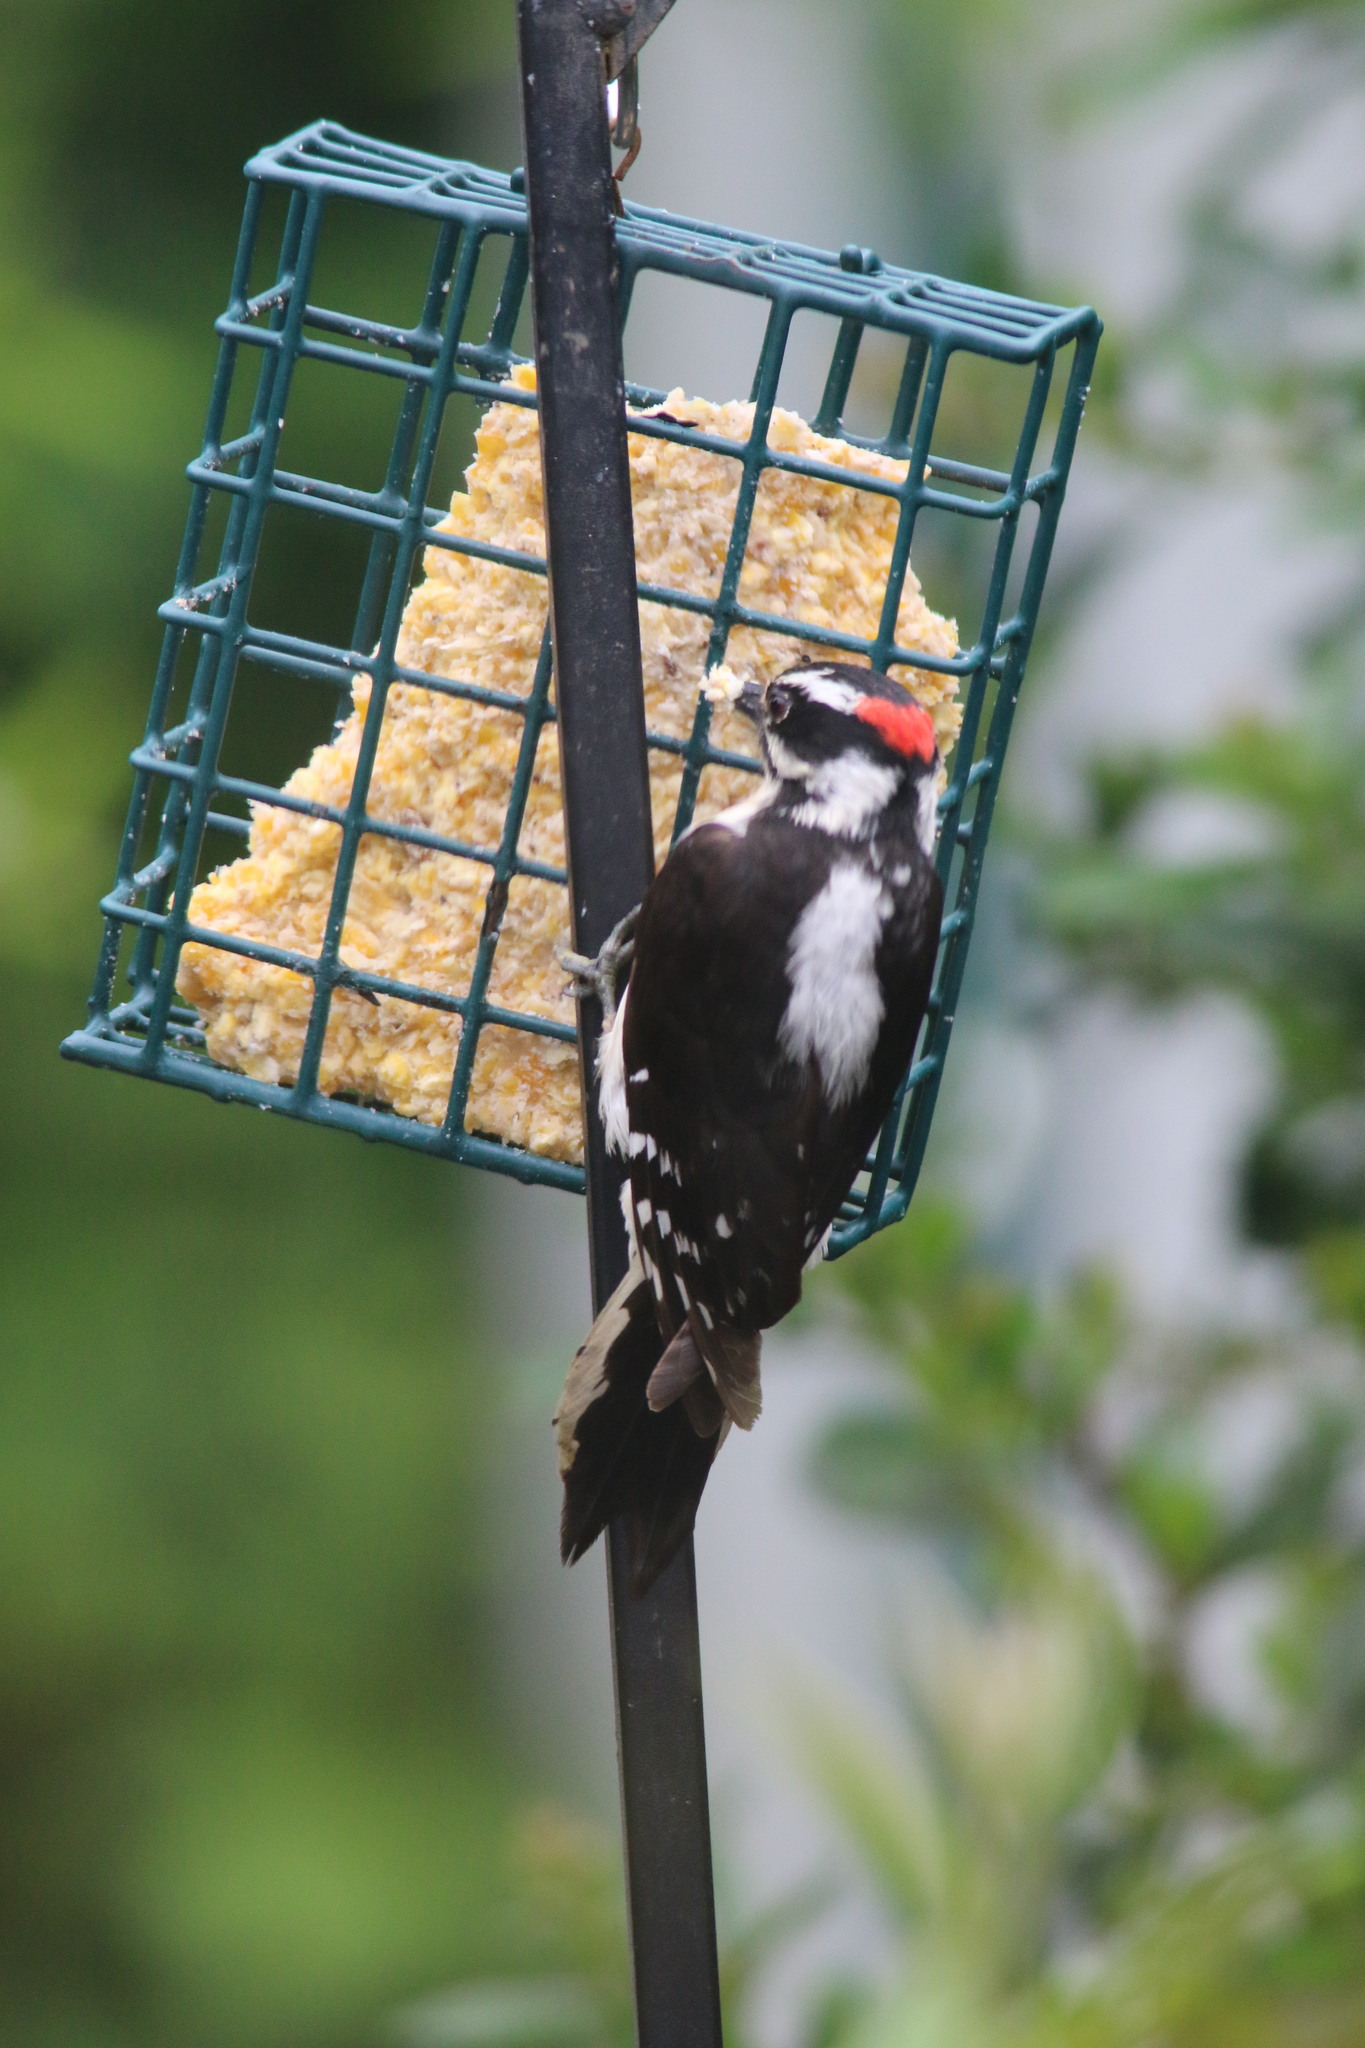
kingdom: Animalia
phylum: Chordata
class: Aves
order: Piciformes
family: Picidae
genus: Dryobates
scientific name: Dryobates pubescens
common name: Downy woodpecker
